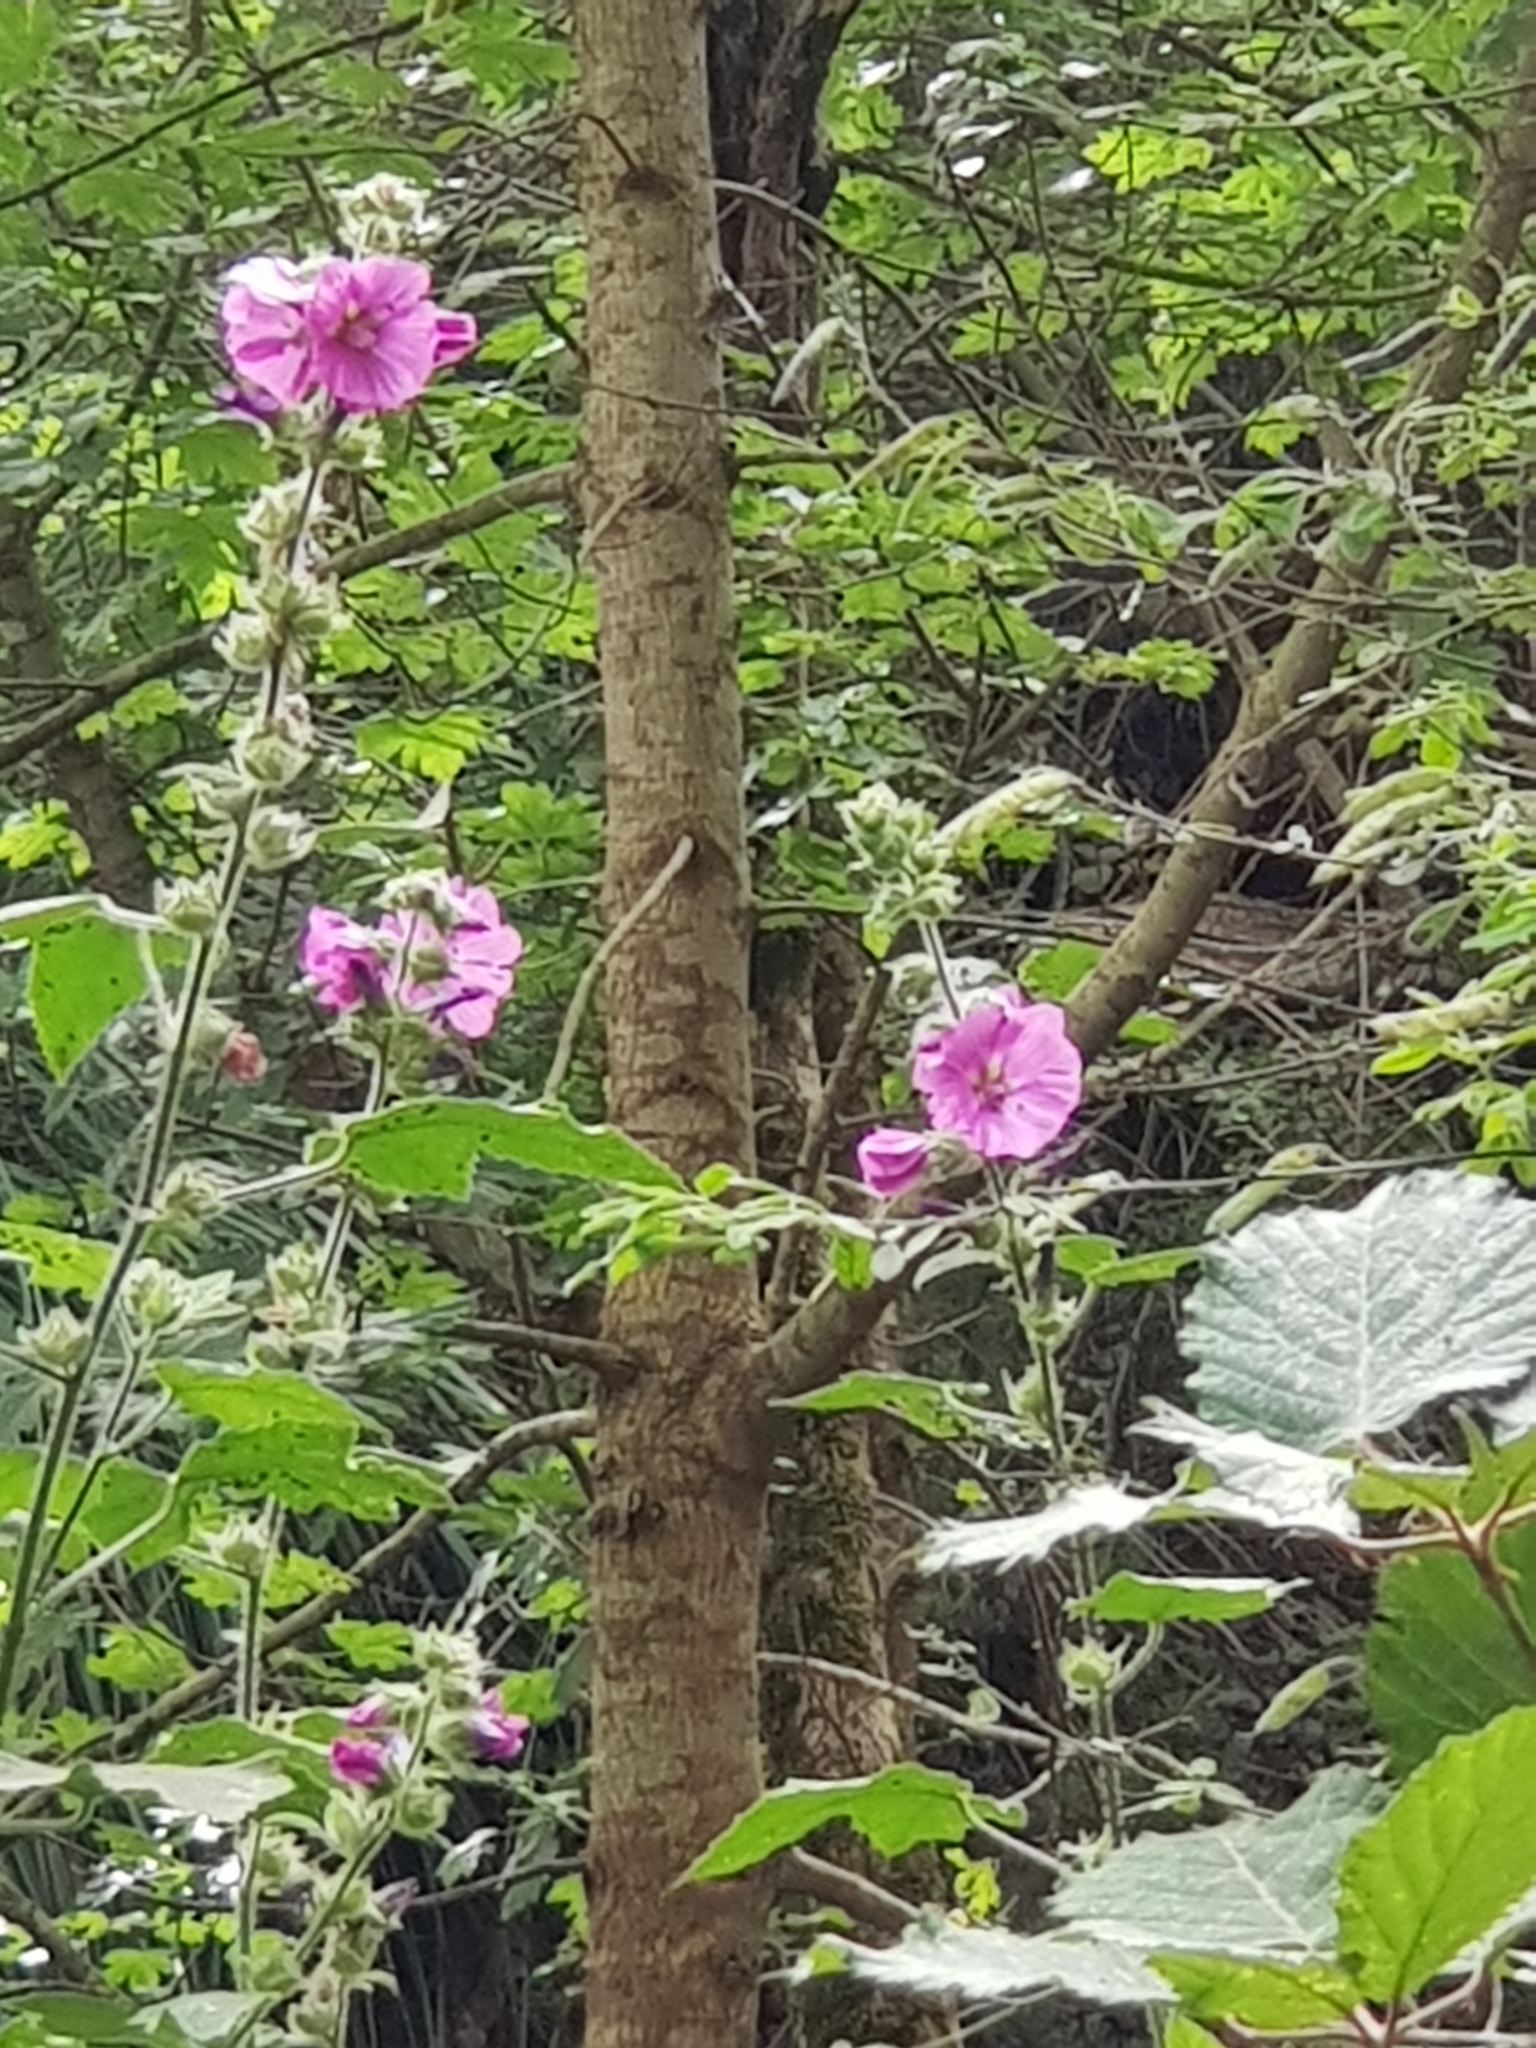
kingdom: Plantae
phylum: Tracheophyta
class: Magnoliopsida
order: Malvales
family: Malvaceae
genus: Malva
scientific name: Malva olbia
